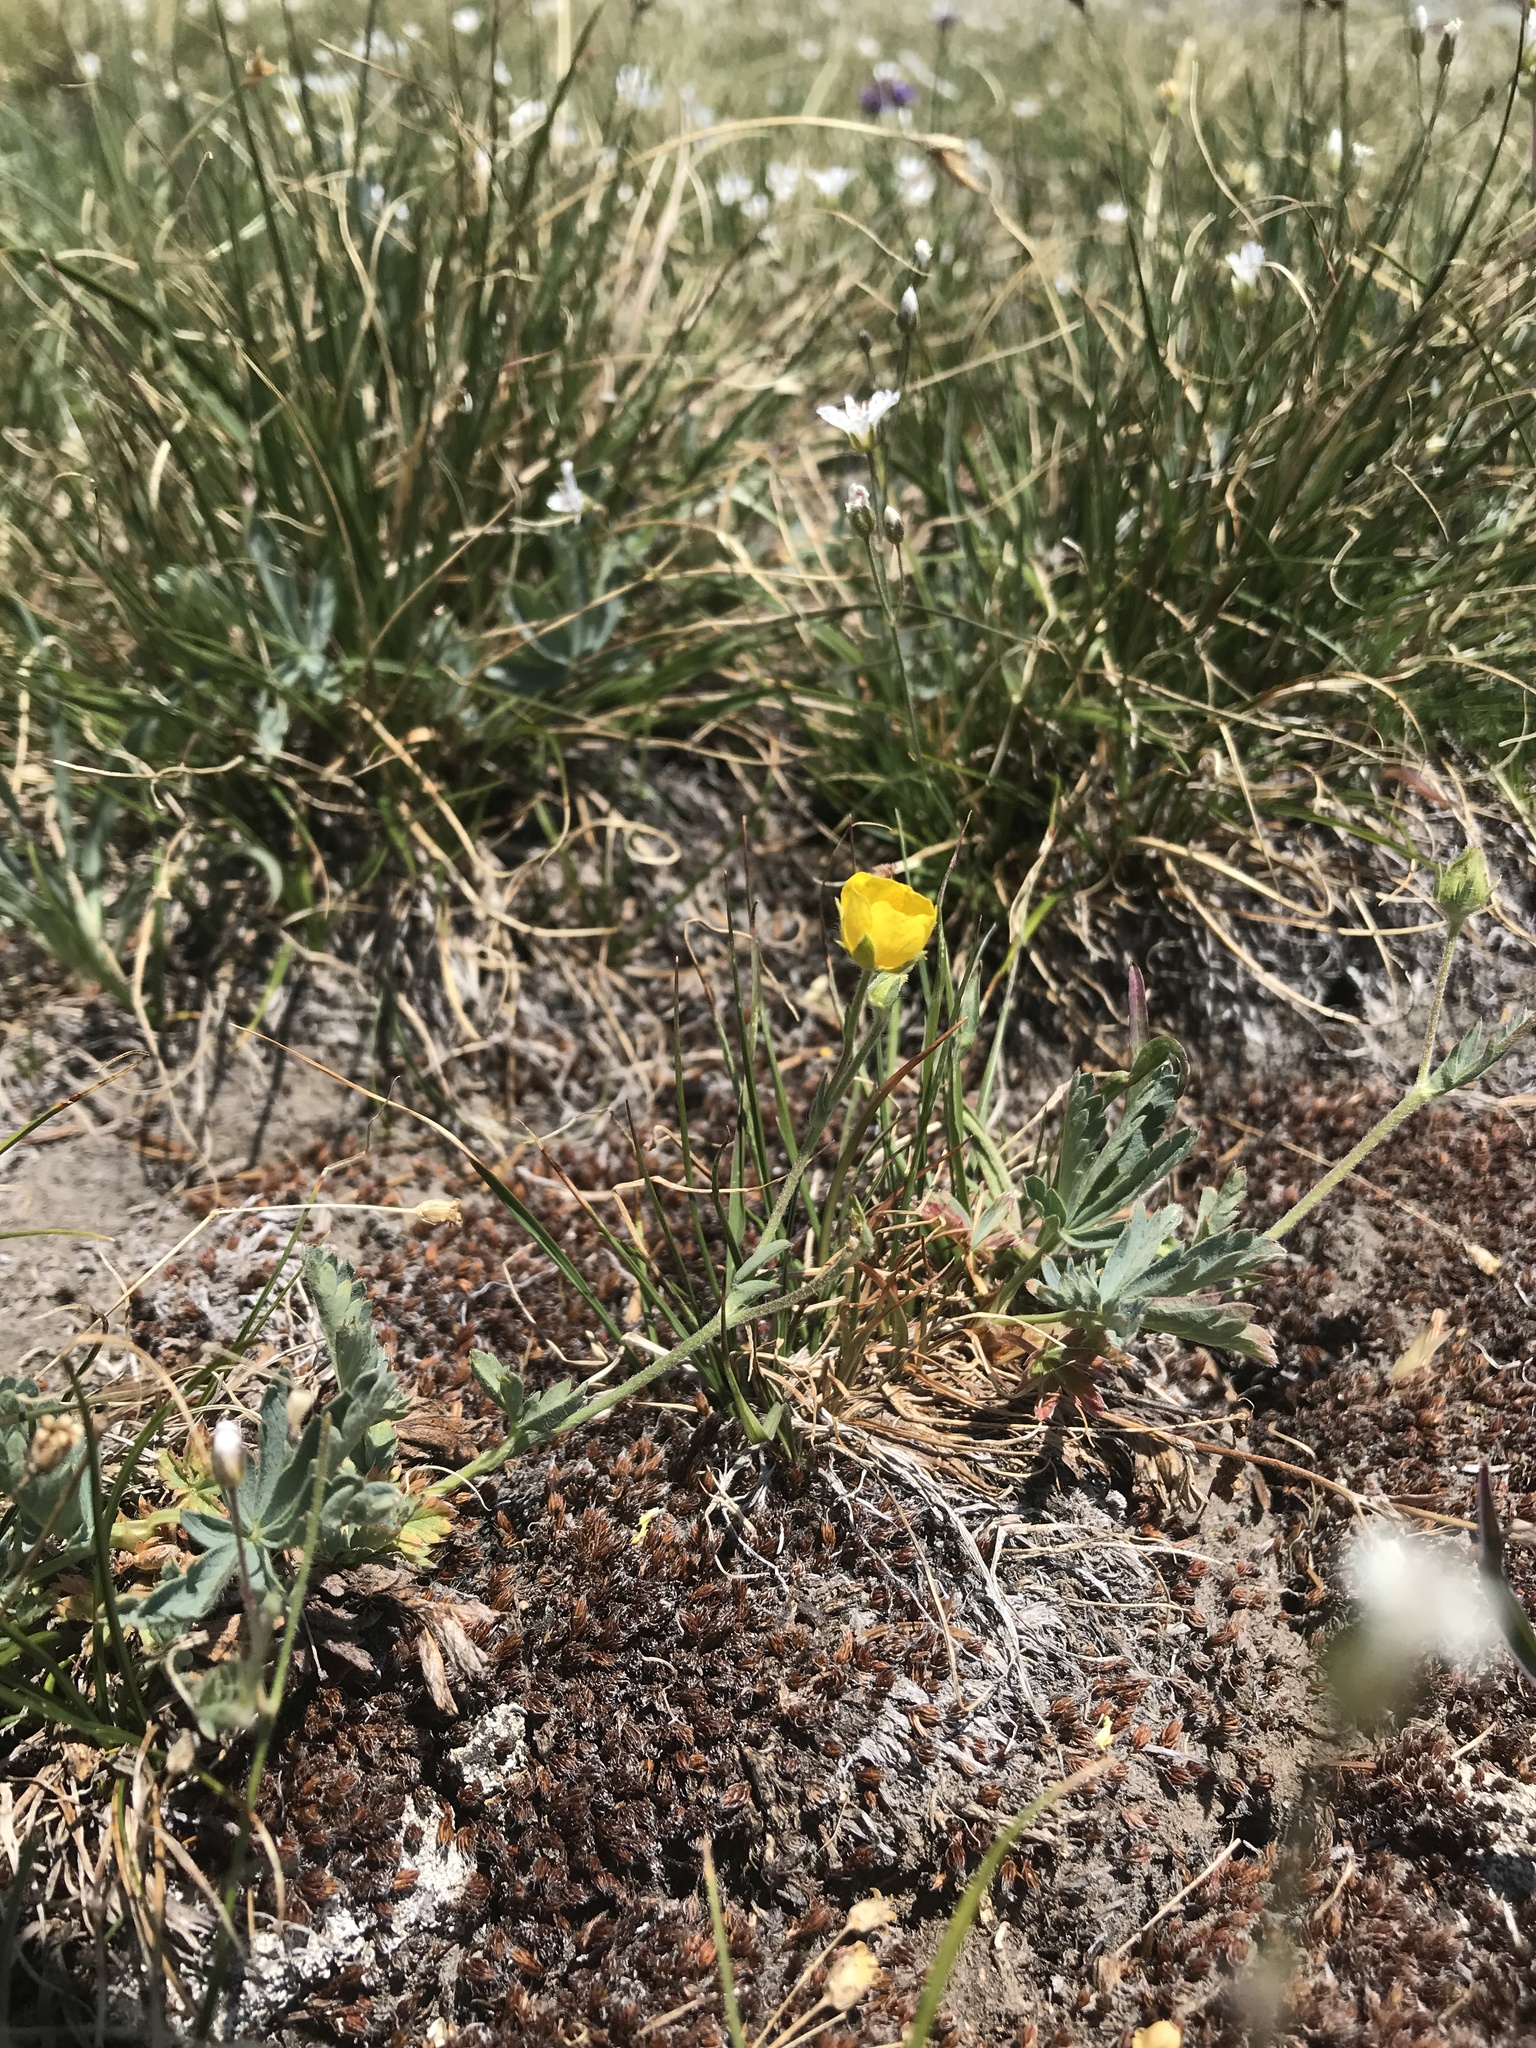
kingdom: Plantae
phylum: Tracheophyta
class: Magnoliopsida
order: Rosales
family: Rosaceae
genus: Potentilla
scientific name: Potentilla glaucophylla
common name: Blue-leaved cinquefoil
